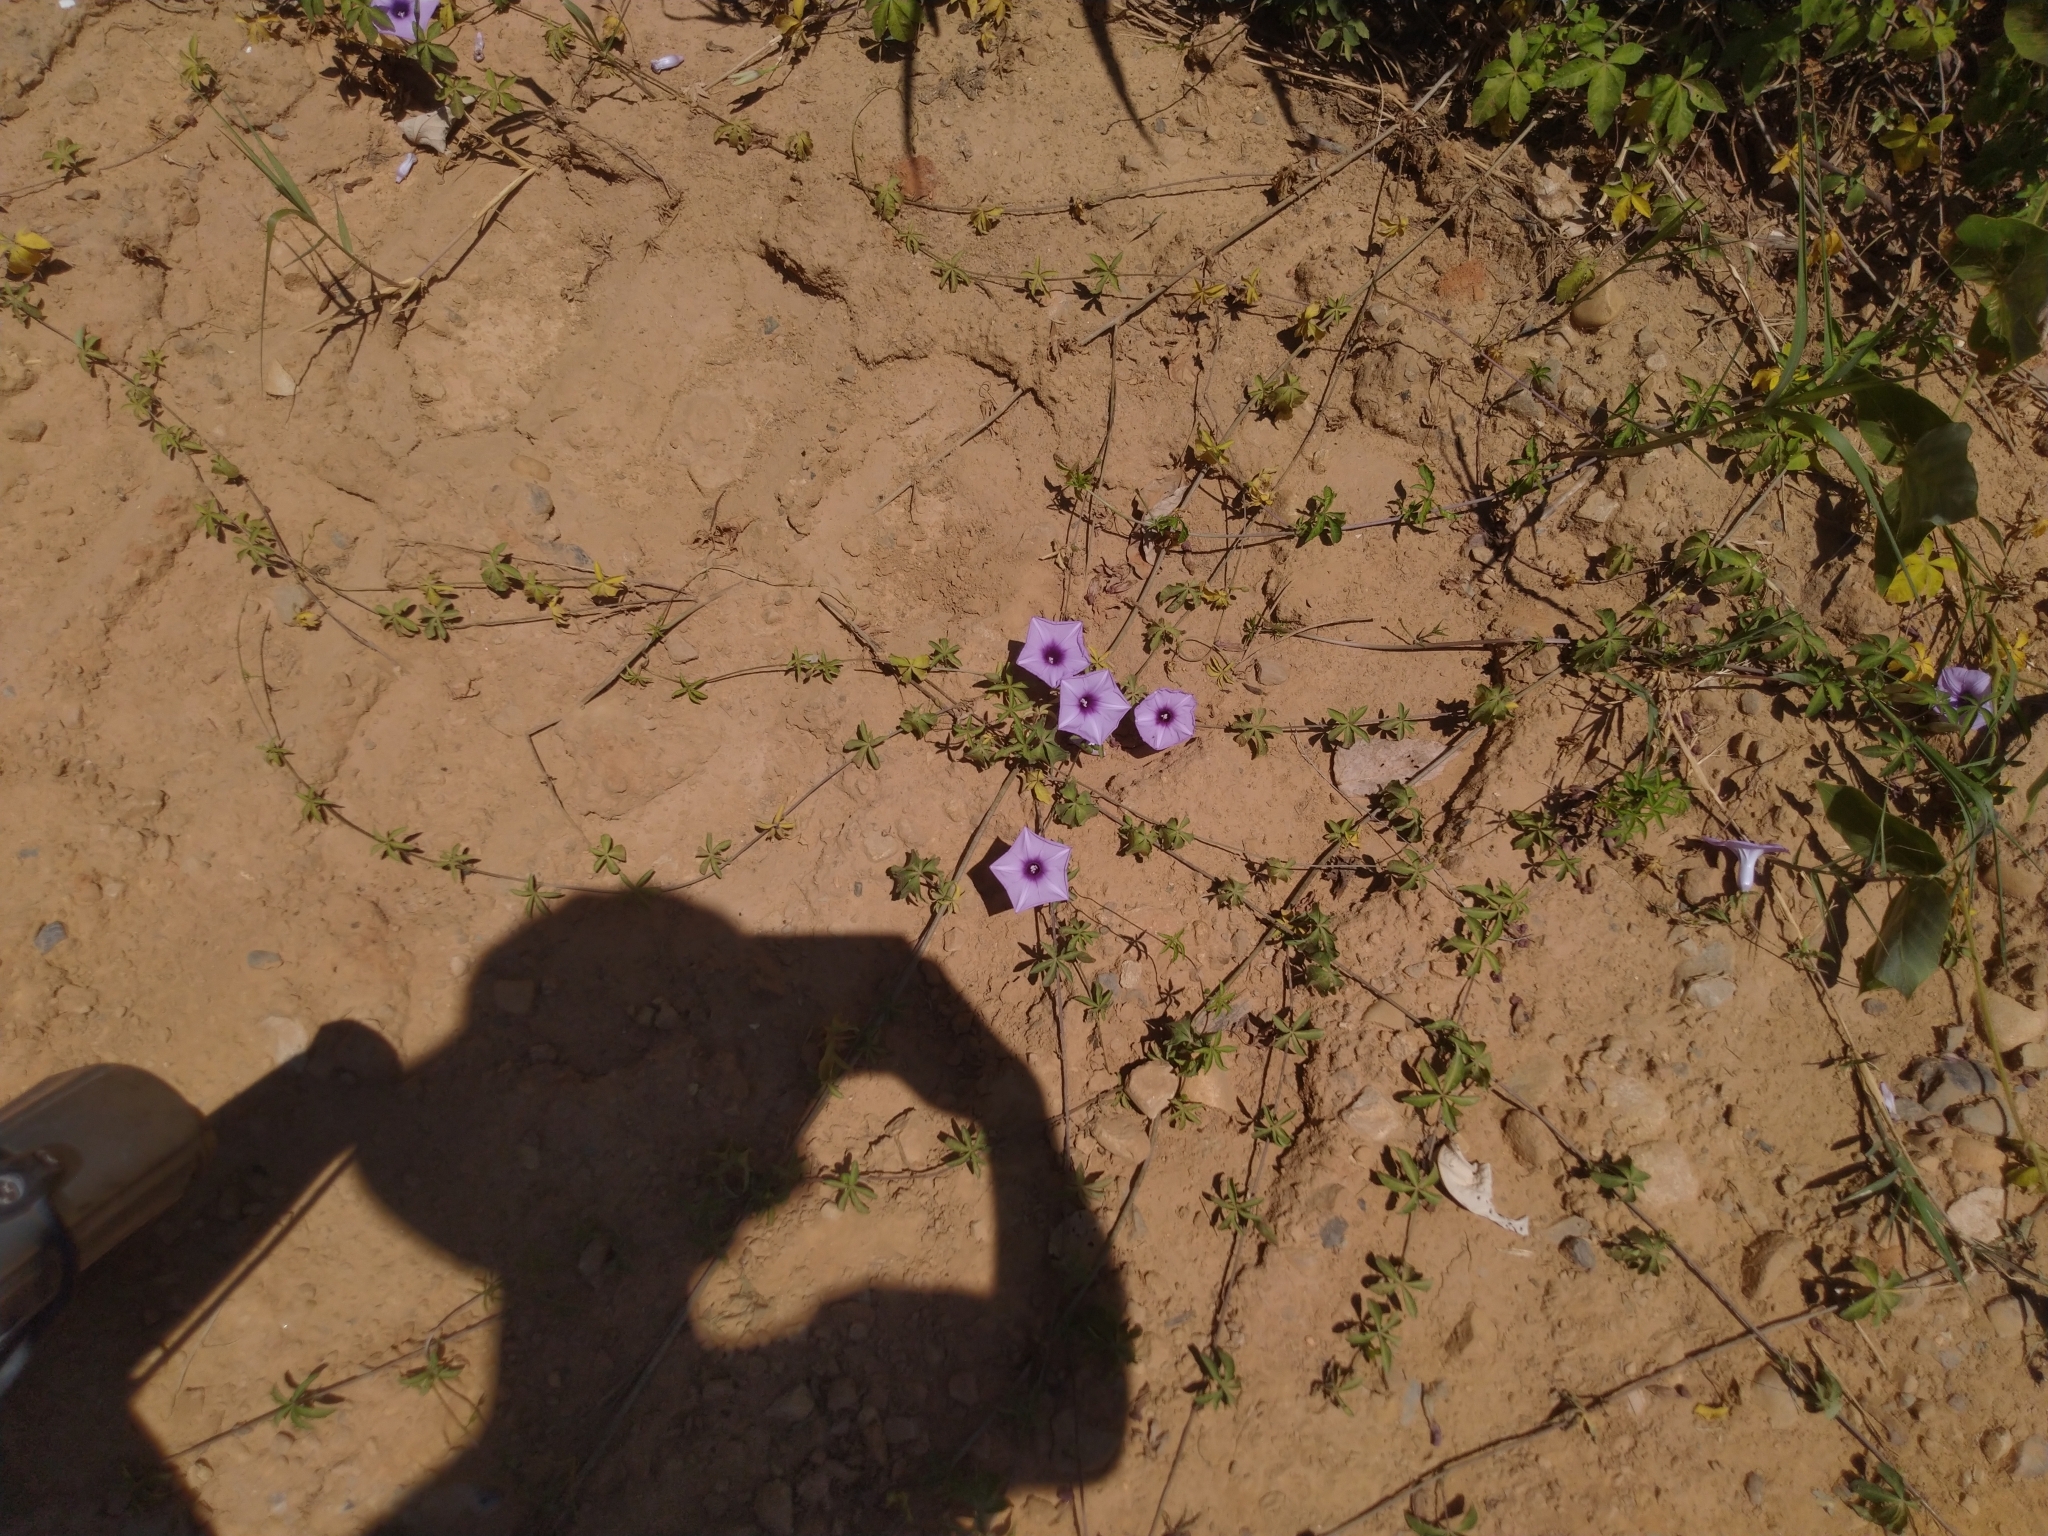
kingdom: Plantae
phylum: Tracheophyta
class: Magnoliopsida
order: Solanales
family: Convolvulaceae
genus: Ipomoea
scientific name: Ipomoea cairica
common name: Mile a minute vine
